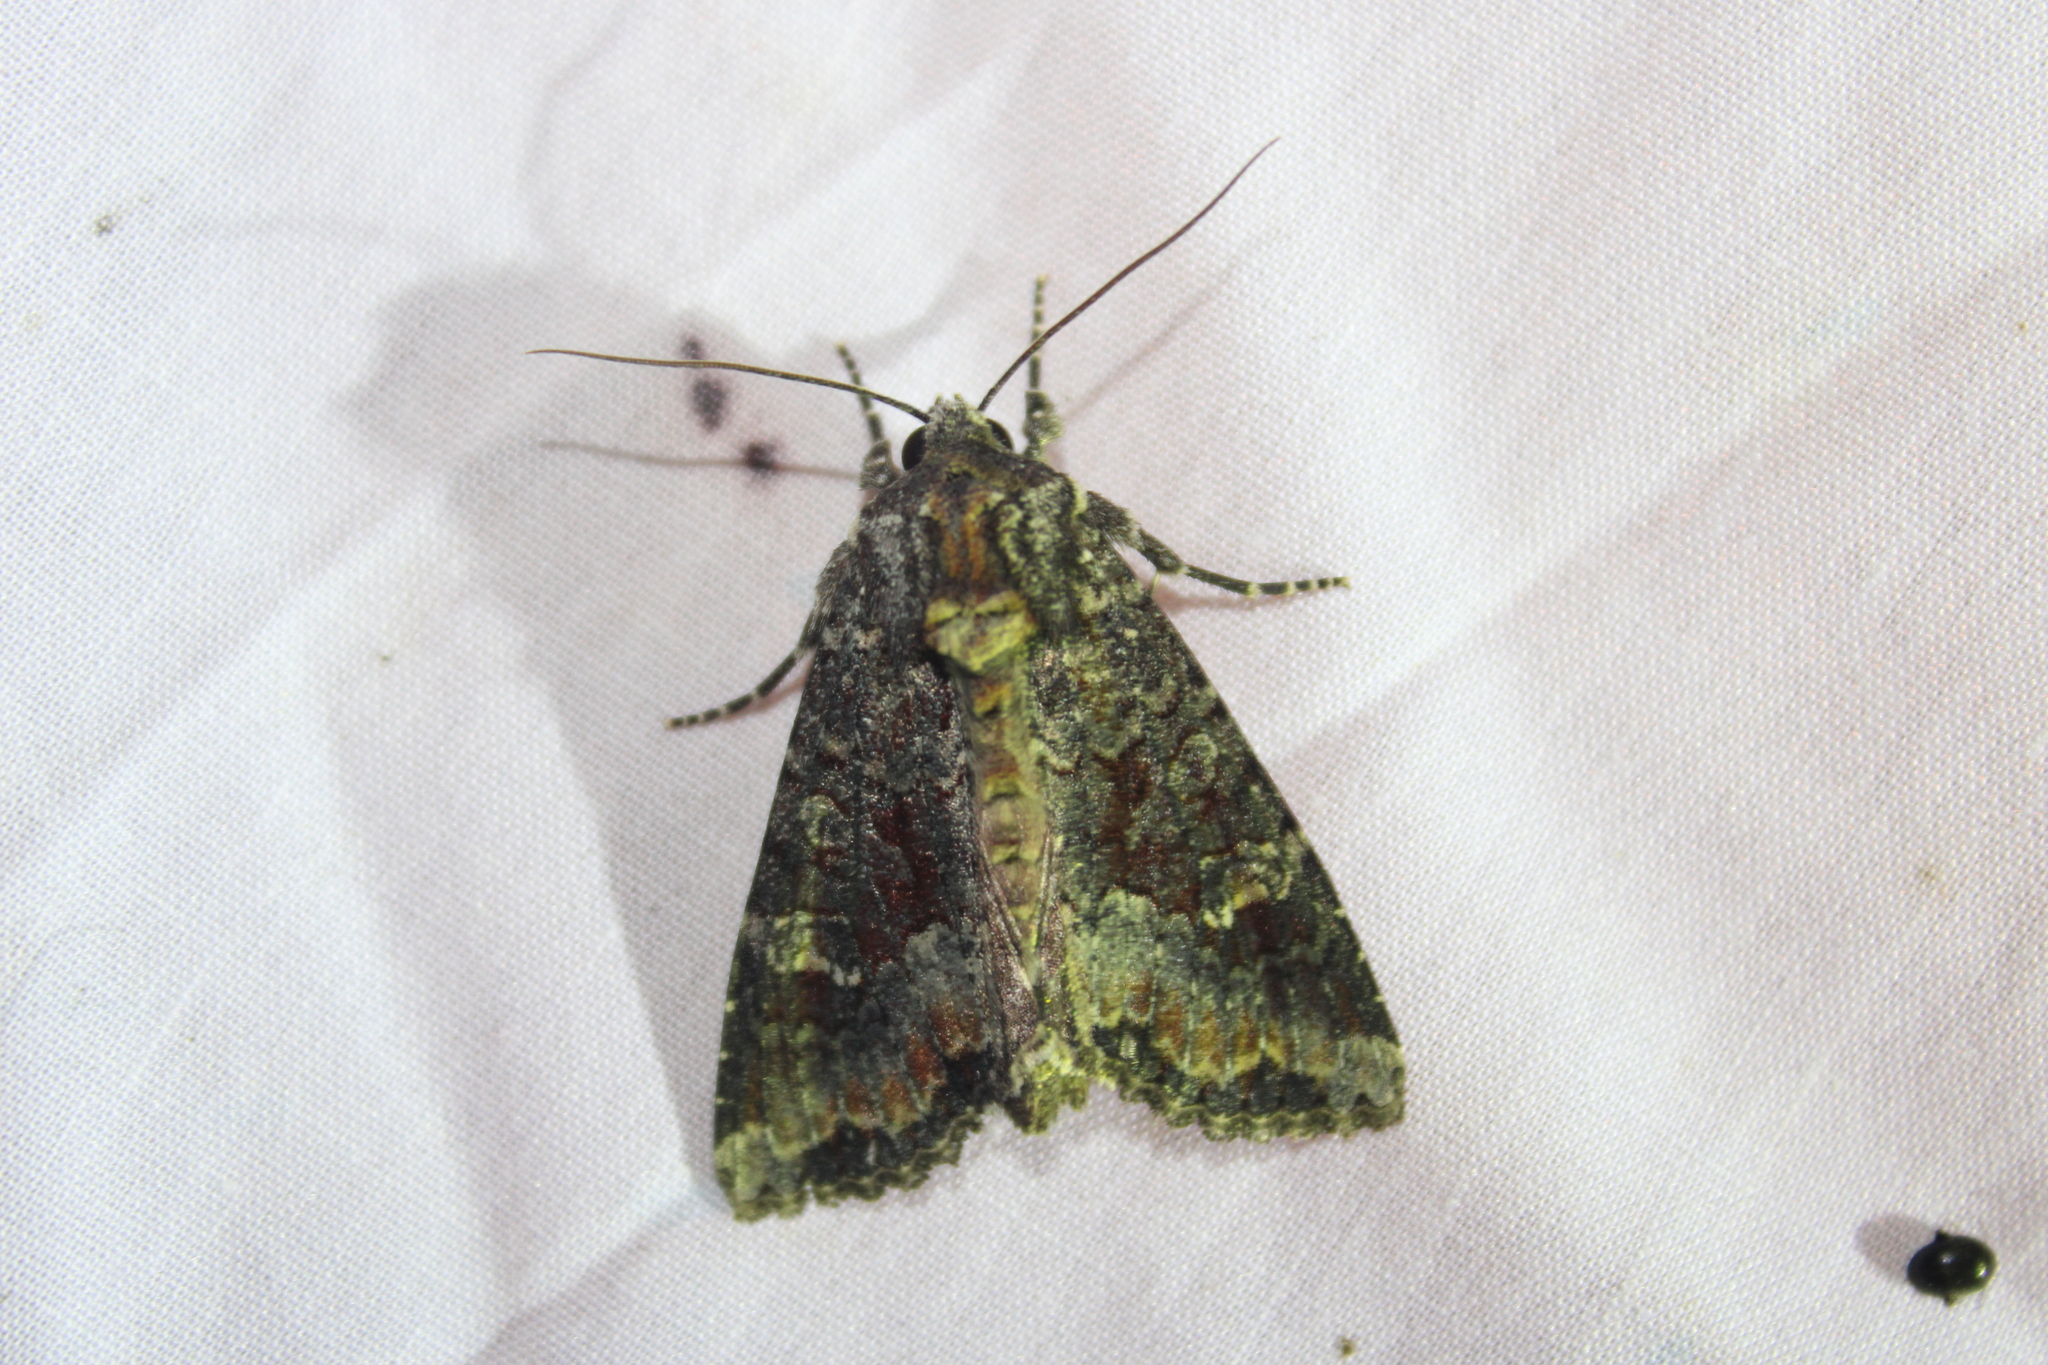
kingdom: Animalia
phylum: Arthropoda
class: Insecta
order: Lepidoptera
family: Noctuidae
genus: Apamea
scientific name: Apamea amputatrix
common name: Yellow-headed cutworm moth
